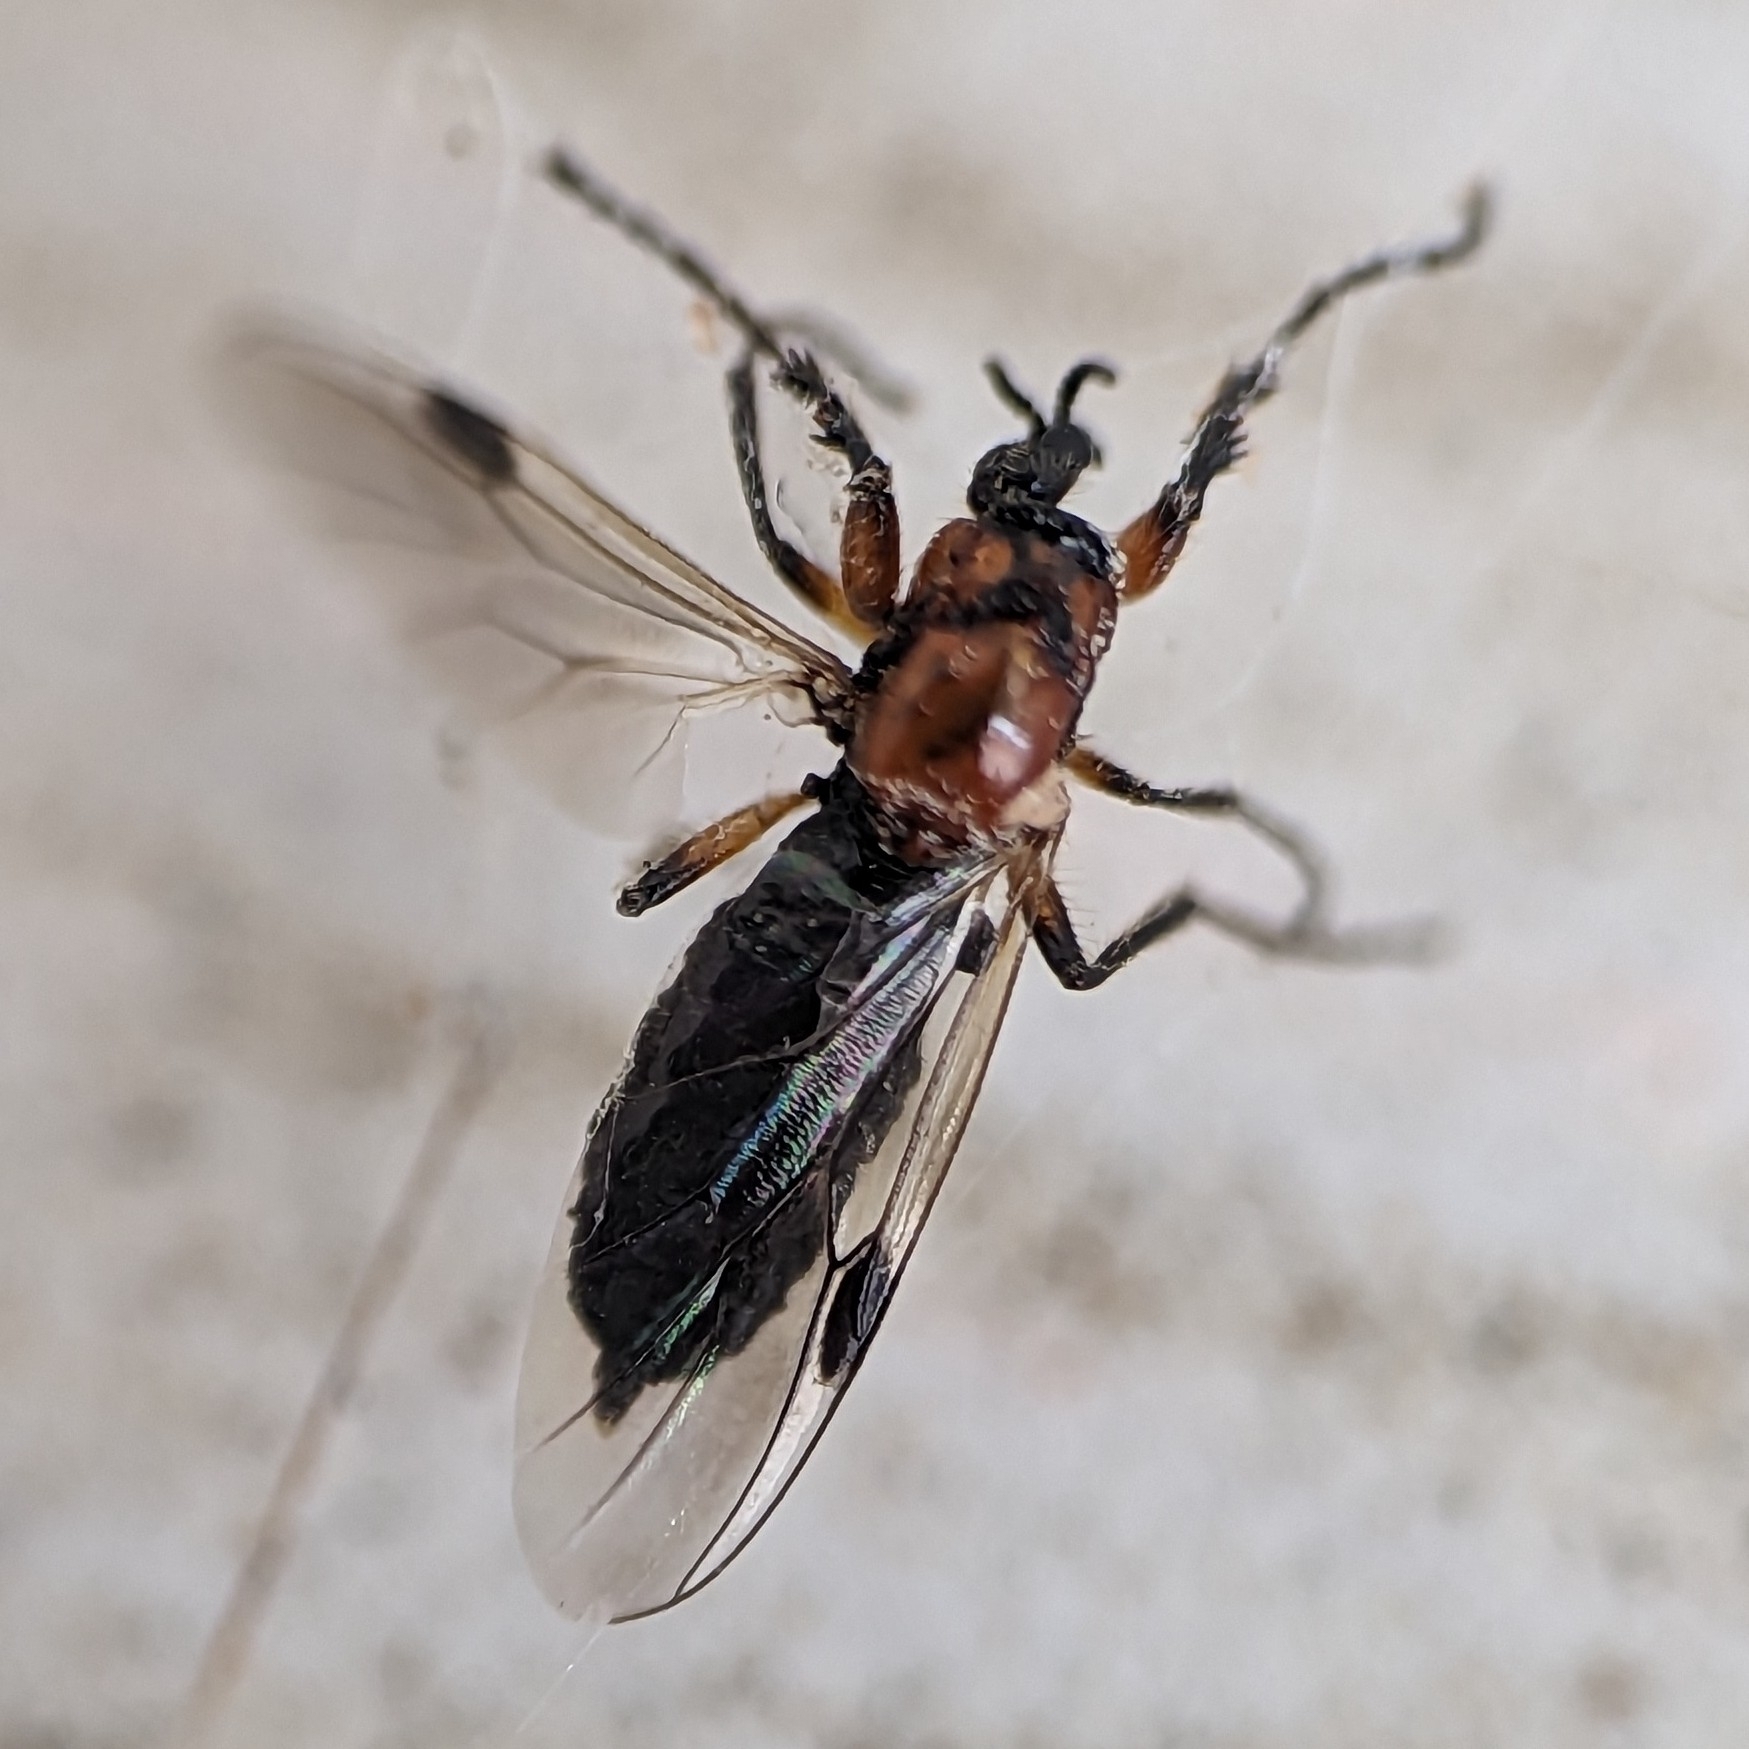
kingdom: Animalia
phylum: Arthropoda
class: Insecta
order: Diptera
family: Bibionidae
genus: Dilophus
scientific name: Dilophus strigilatus
